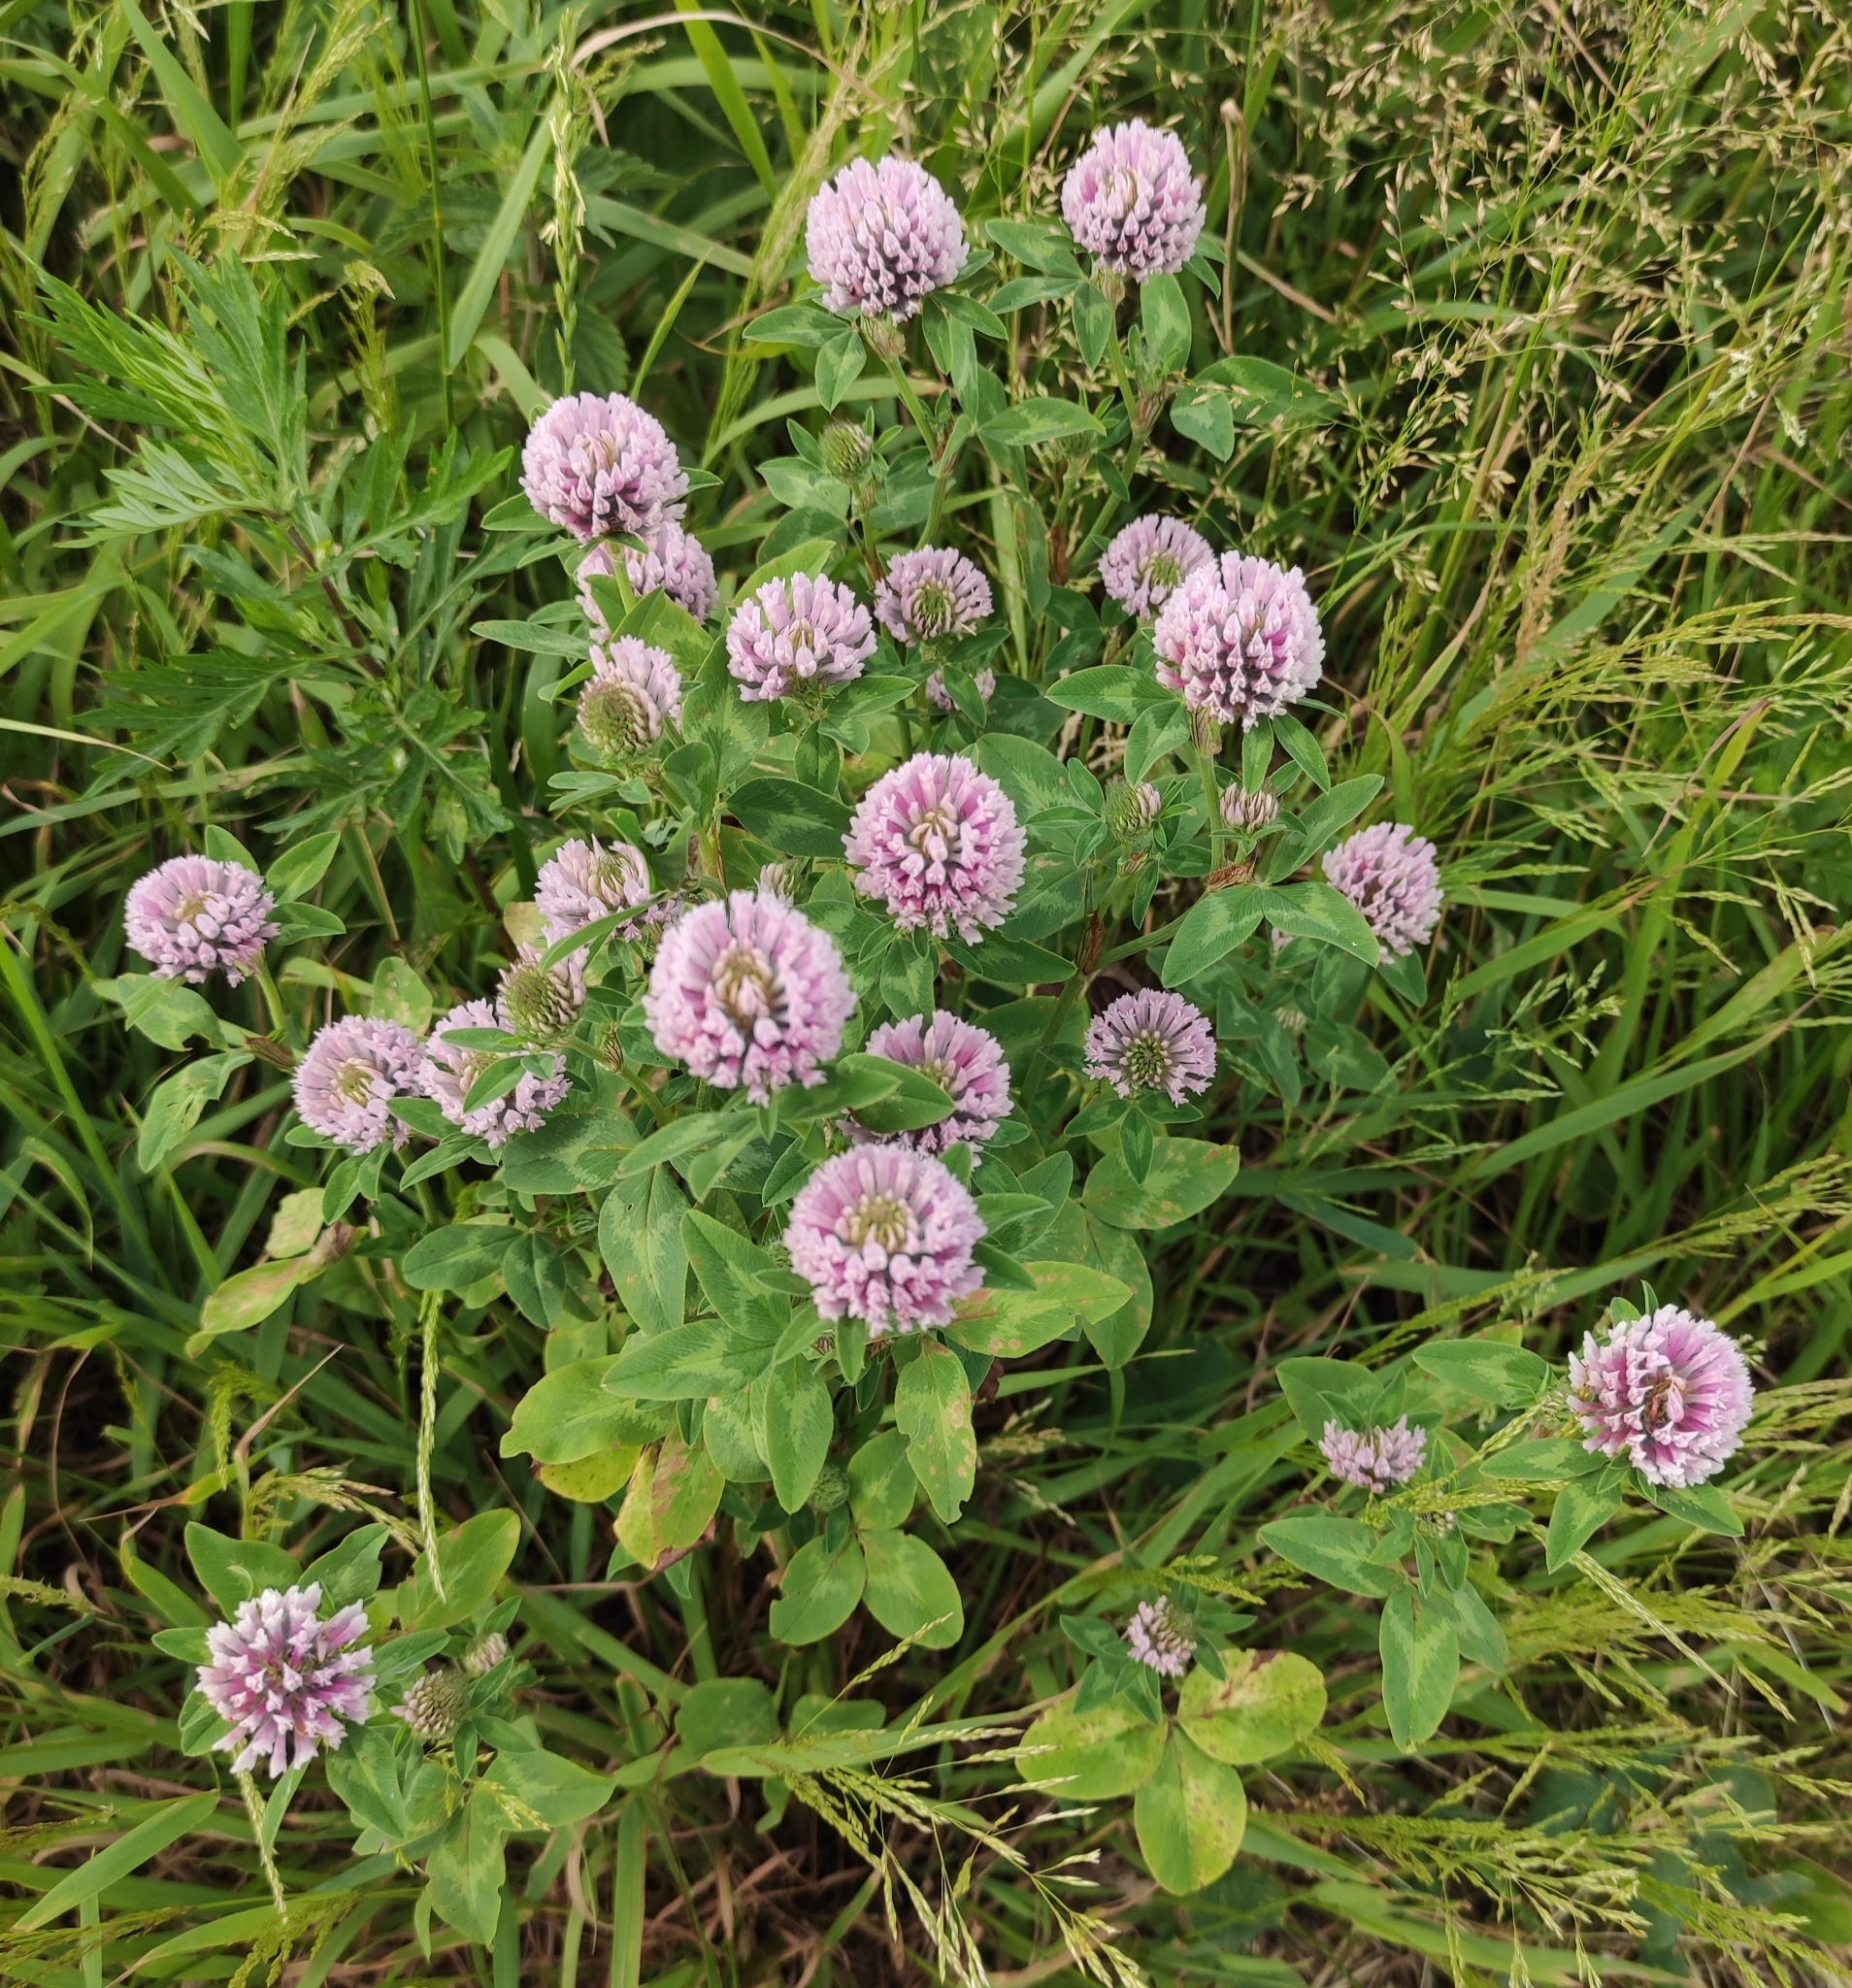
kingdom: Plantae
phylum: Tracheophyta
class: Magnoliopsida
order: Fabales
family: Fabaceae
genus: Trifolium
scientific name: Trifolium pratense
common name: Red clover
